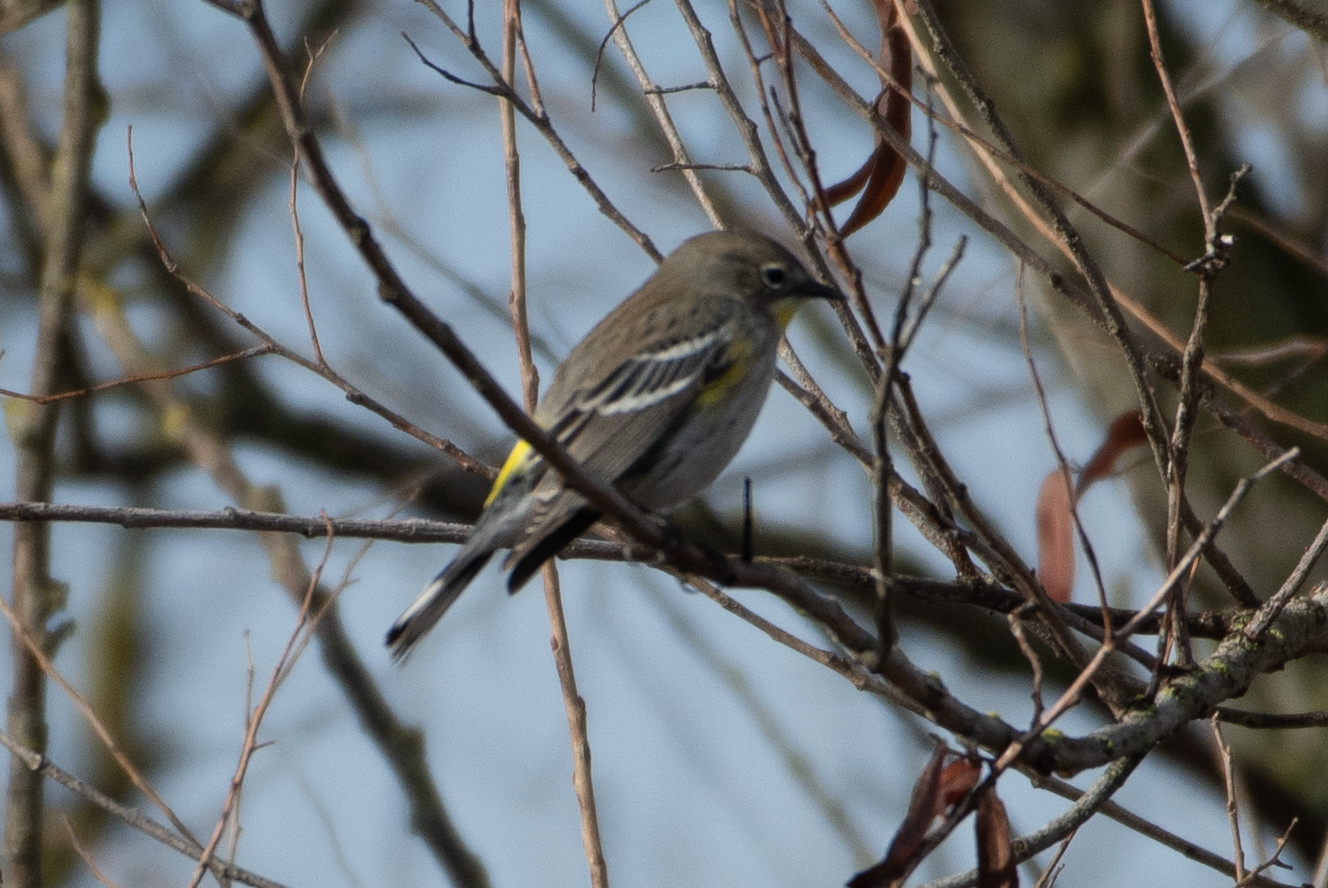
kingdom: Animalia
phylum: Chordata
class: Aves
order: Passeriformes
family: Parulidae
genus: Setophaga
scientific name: Setophaga coronata
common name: Myrtle warbler
